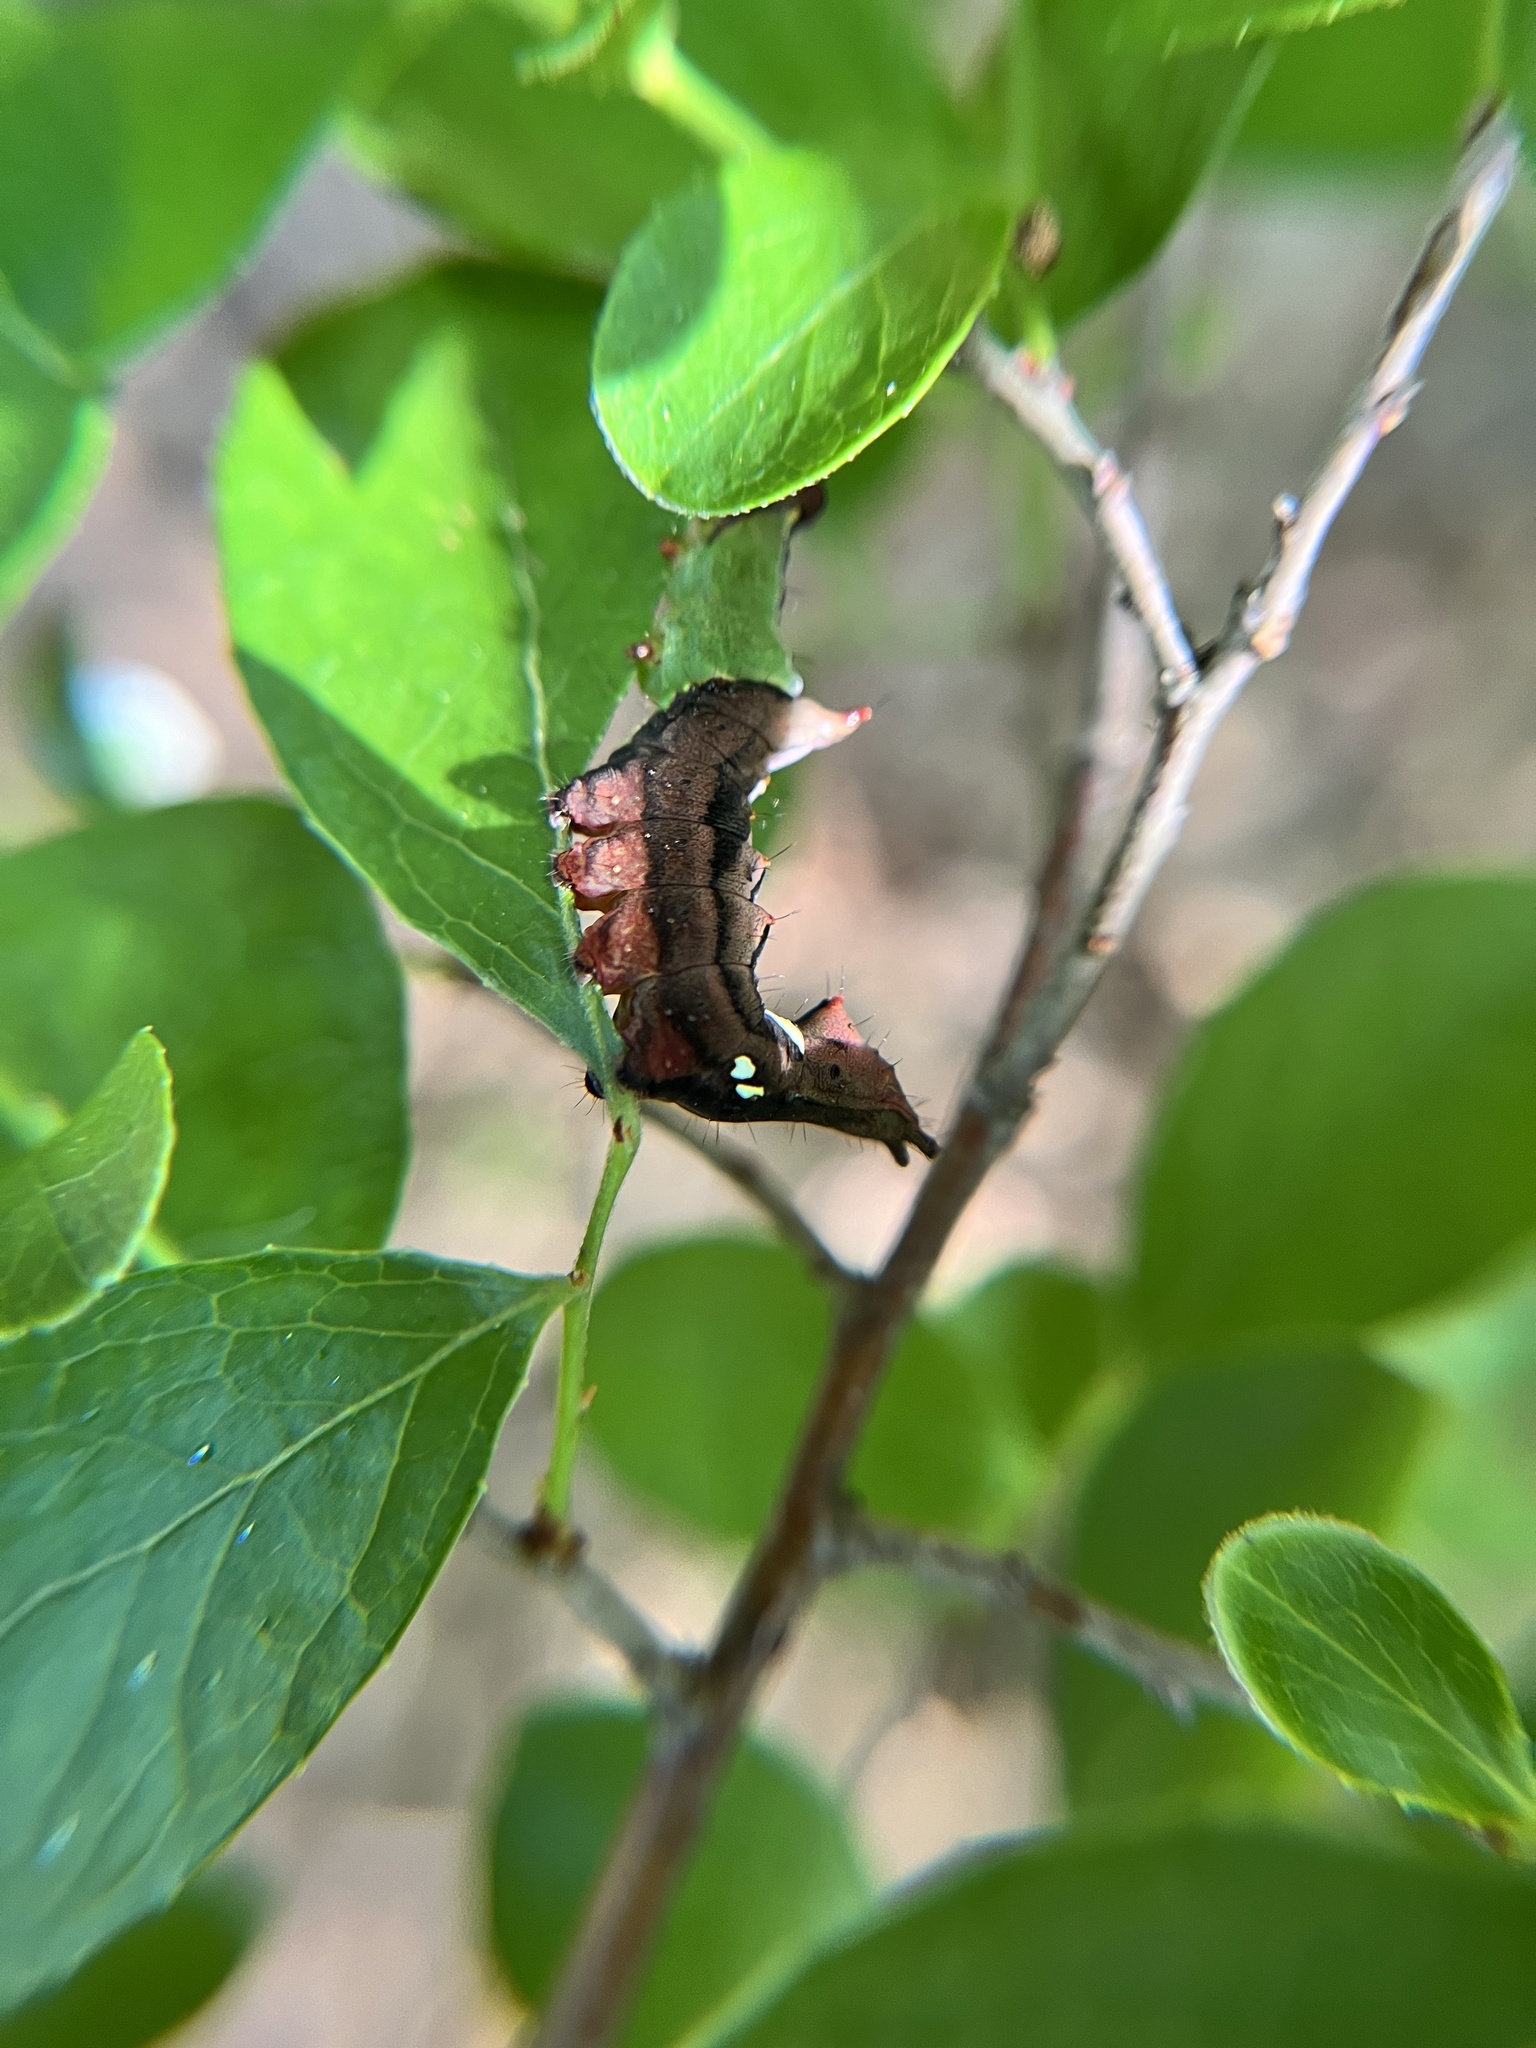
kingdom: Animalia
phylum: Arthropoda
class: Insecta
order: Lepidoptera
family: Notodontidae
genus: Schizura
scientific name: Schizura
